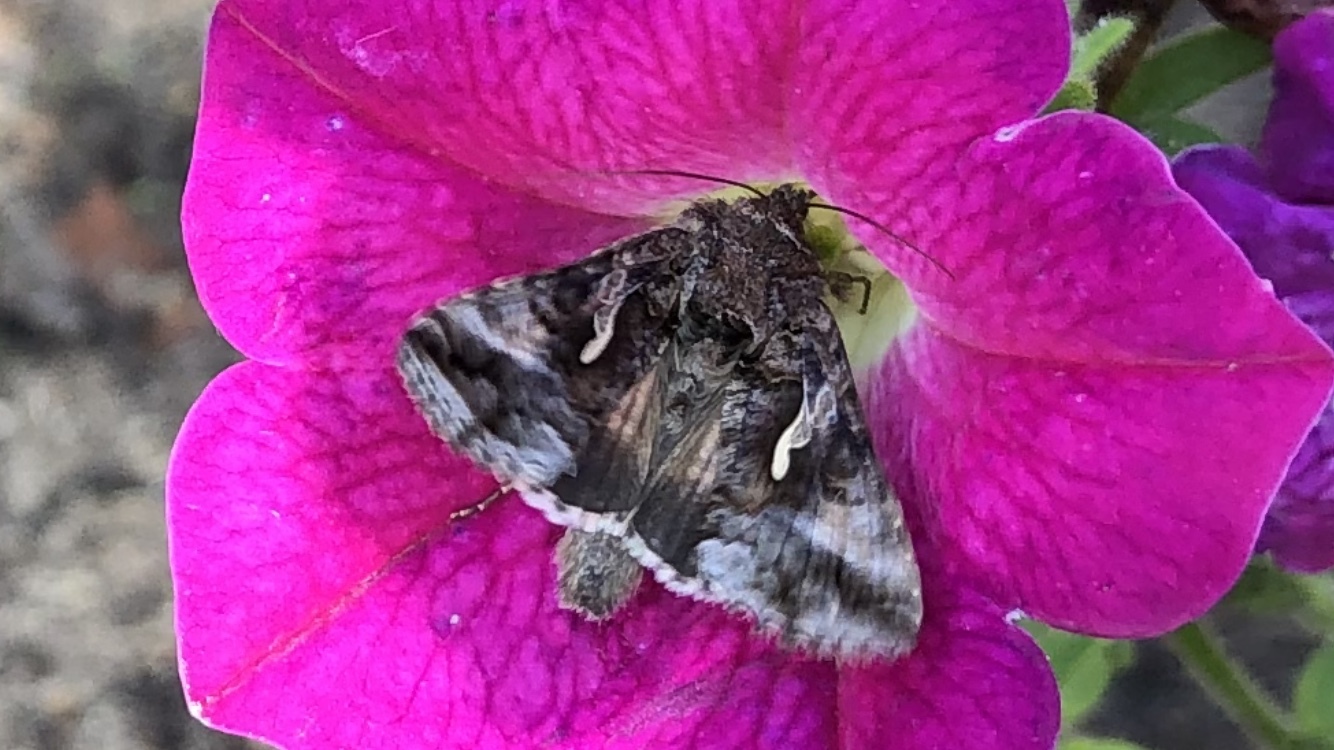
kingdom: Animalia
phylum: Arthropoda
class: Insecta
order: Lepidoptera
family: Noctuidae
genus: Autographa
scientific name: Autographa gamma
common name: Silver y
